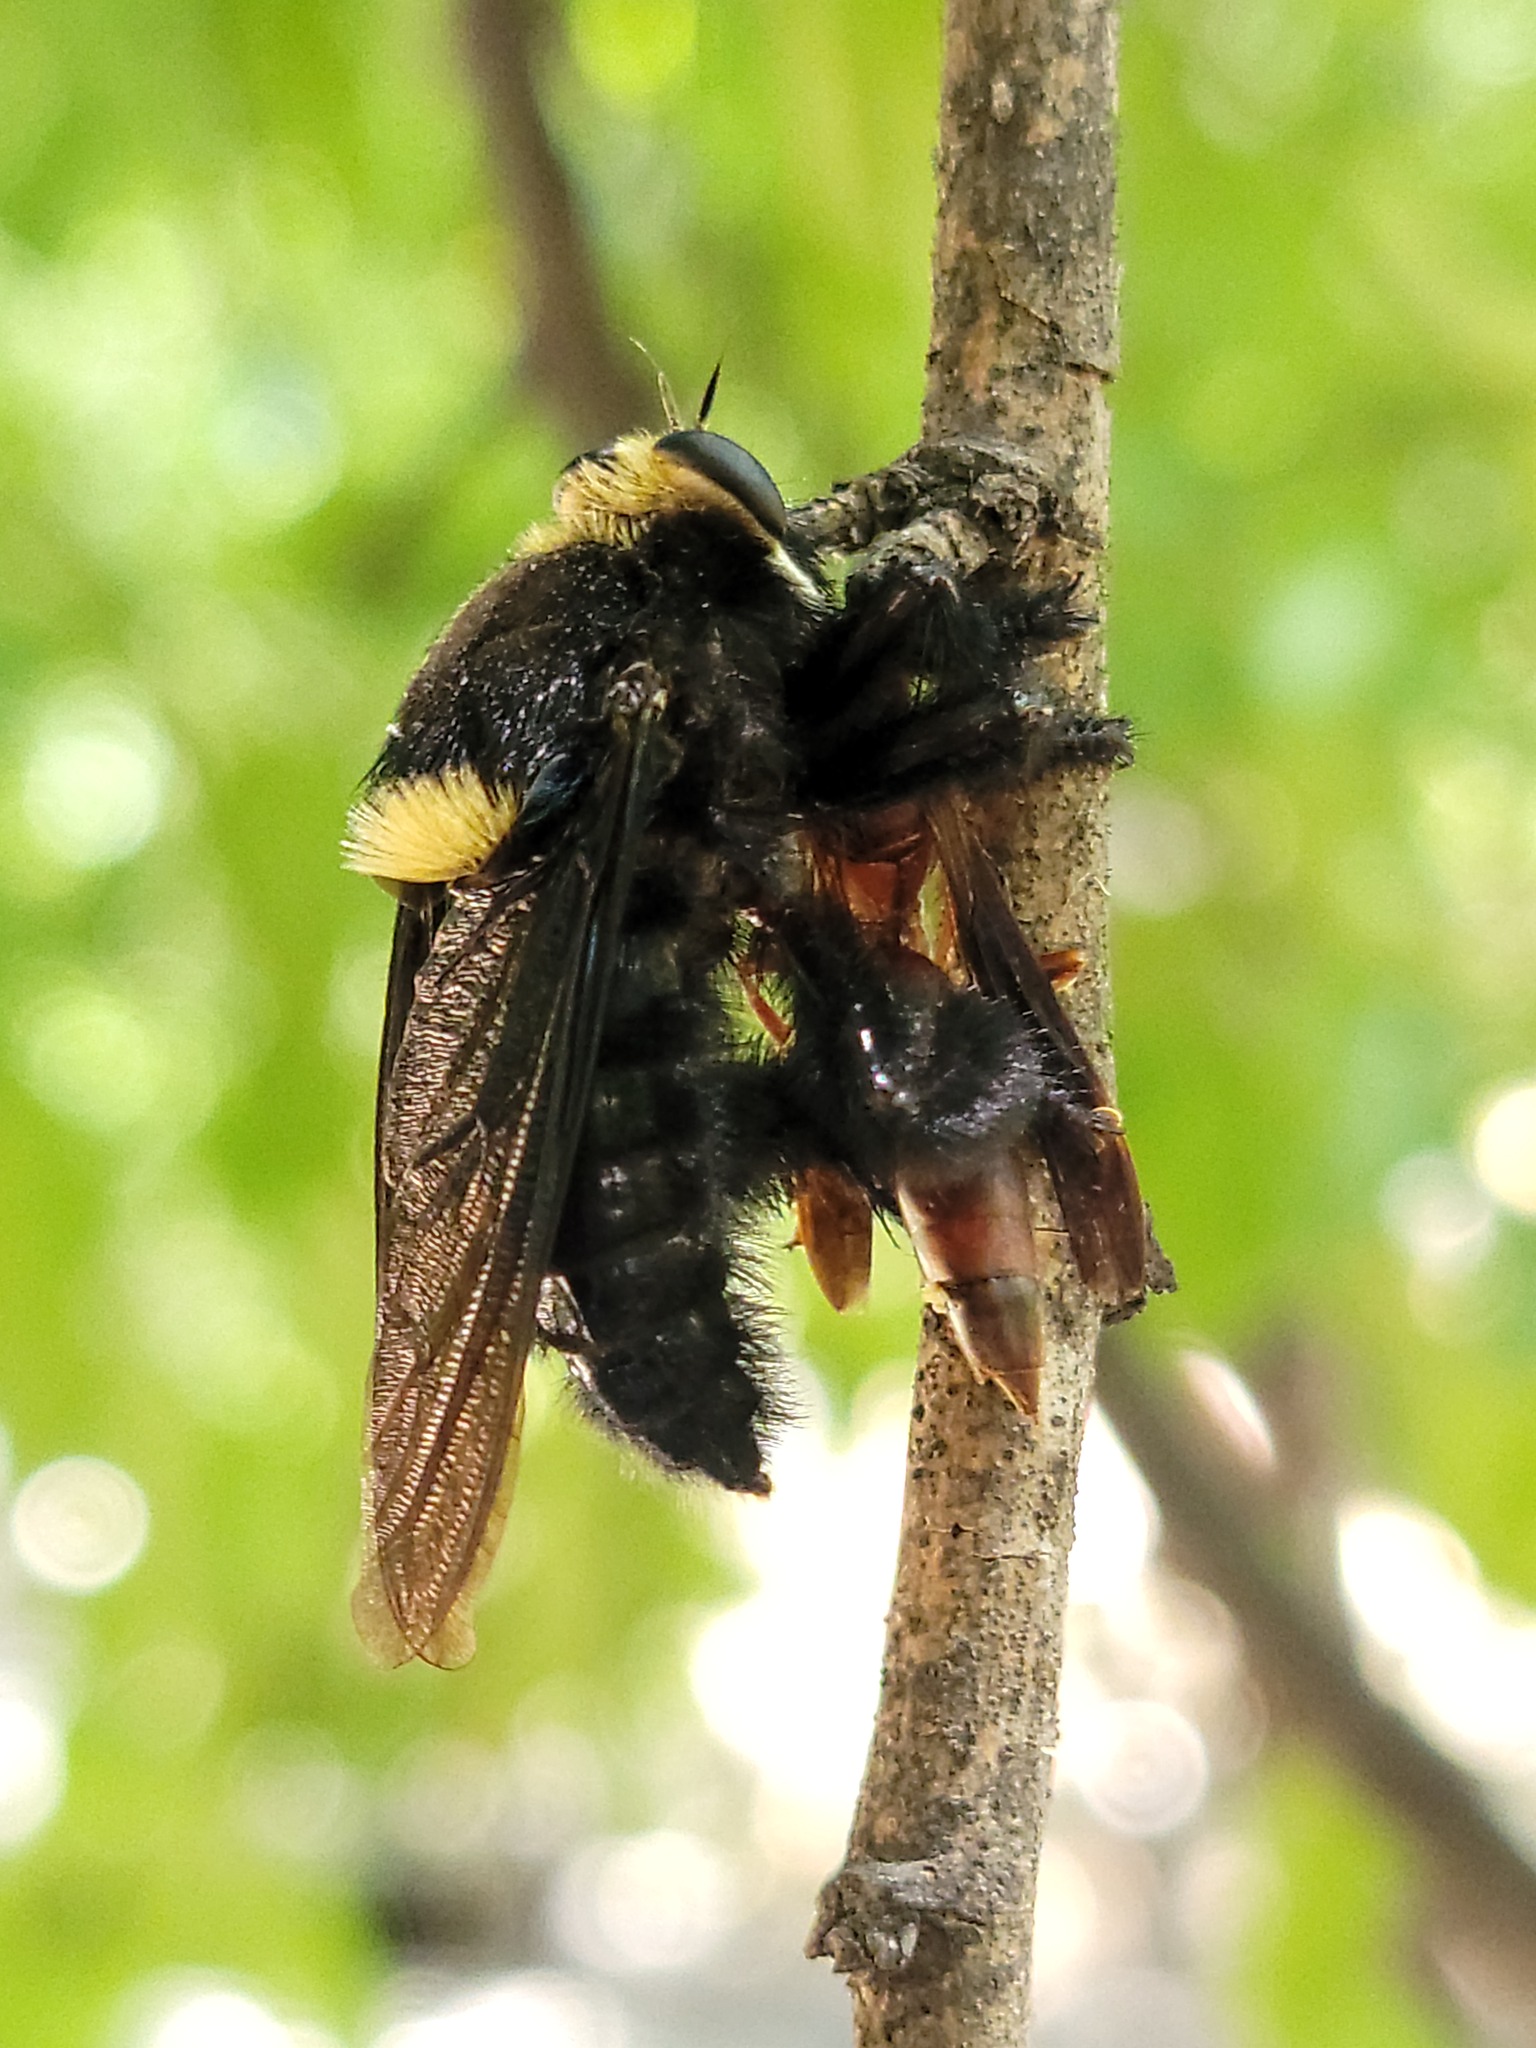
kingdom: Animalia
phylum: Arthropoda
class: Insecta
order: Diptera
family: Asilidae
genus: Mallophora
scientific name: Mallophora leschenaultii
